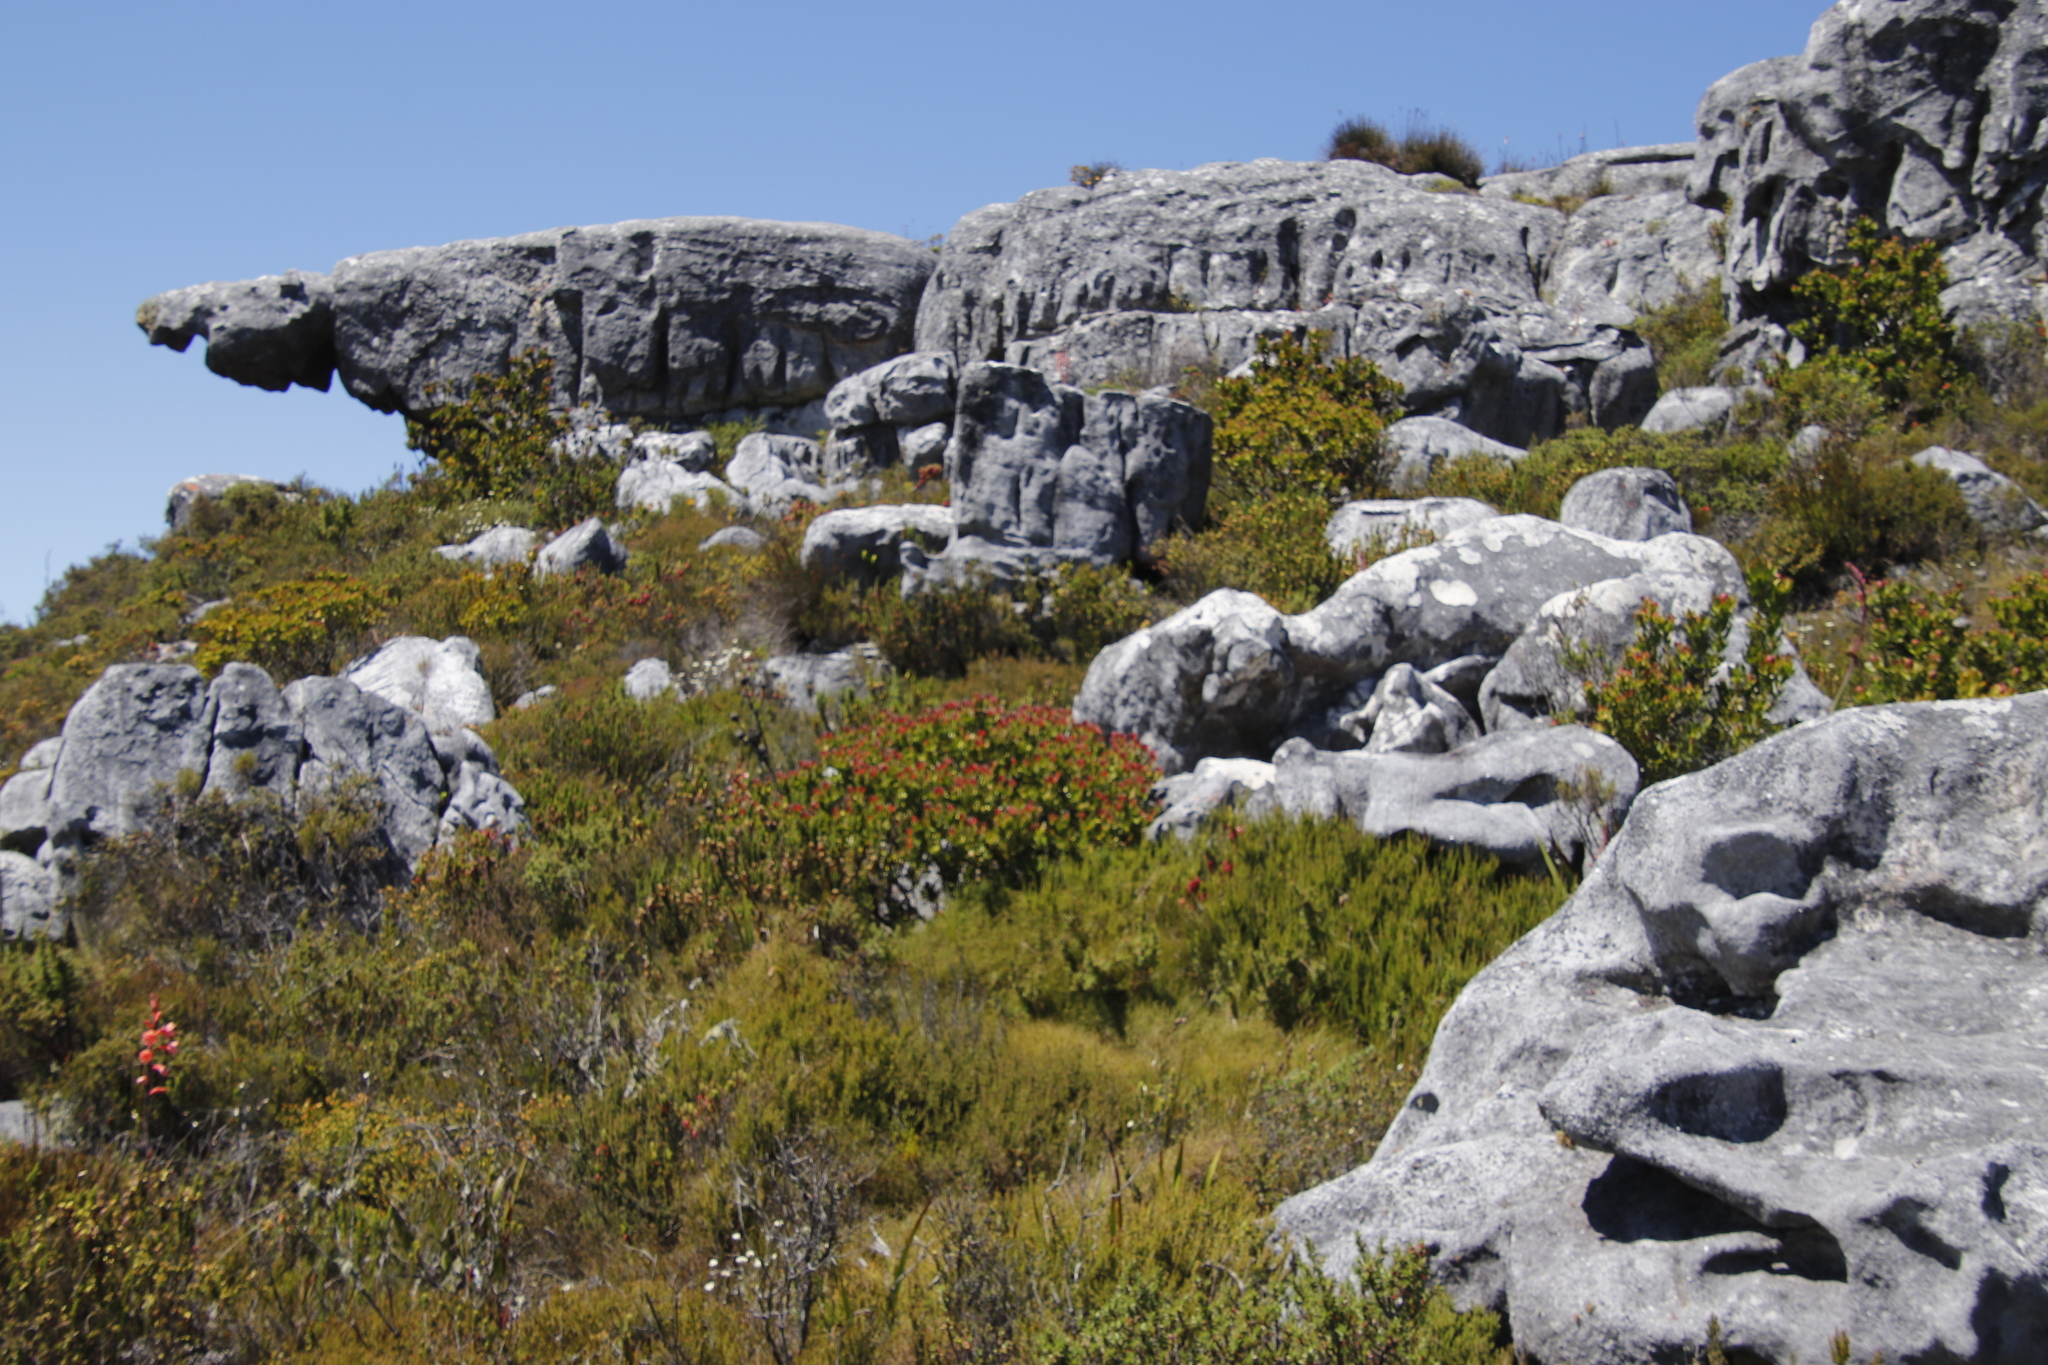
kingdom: Plantae
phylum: Tracheophyta
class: Magnoliopsida
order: Proteales
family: Proteaceae
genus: Leucadendron
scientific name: Leucadendron strobilinum
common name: Mountain rose
